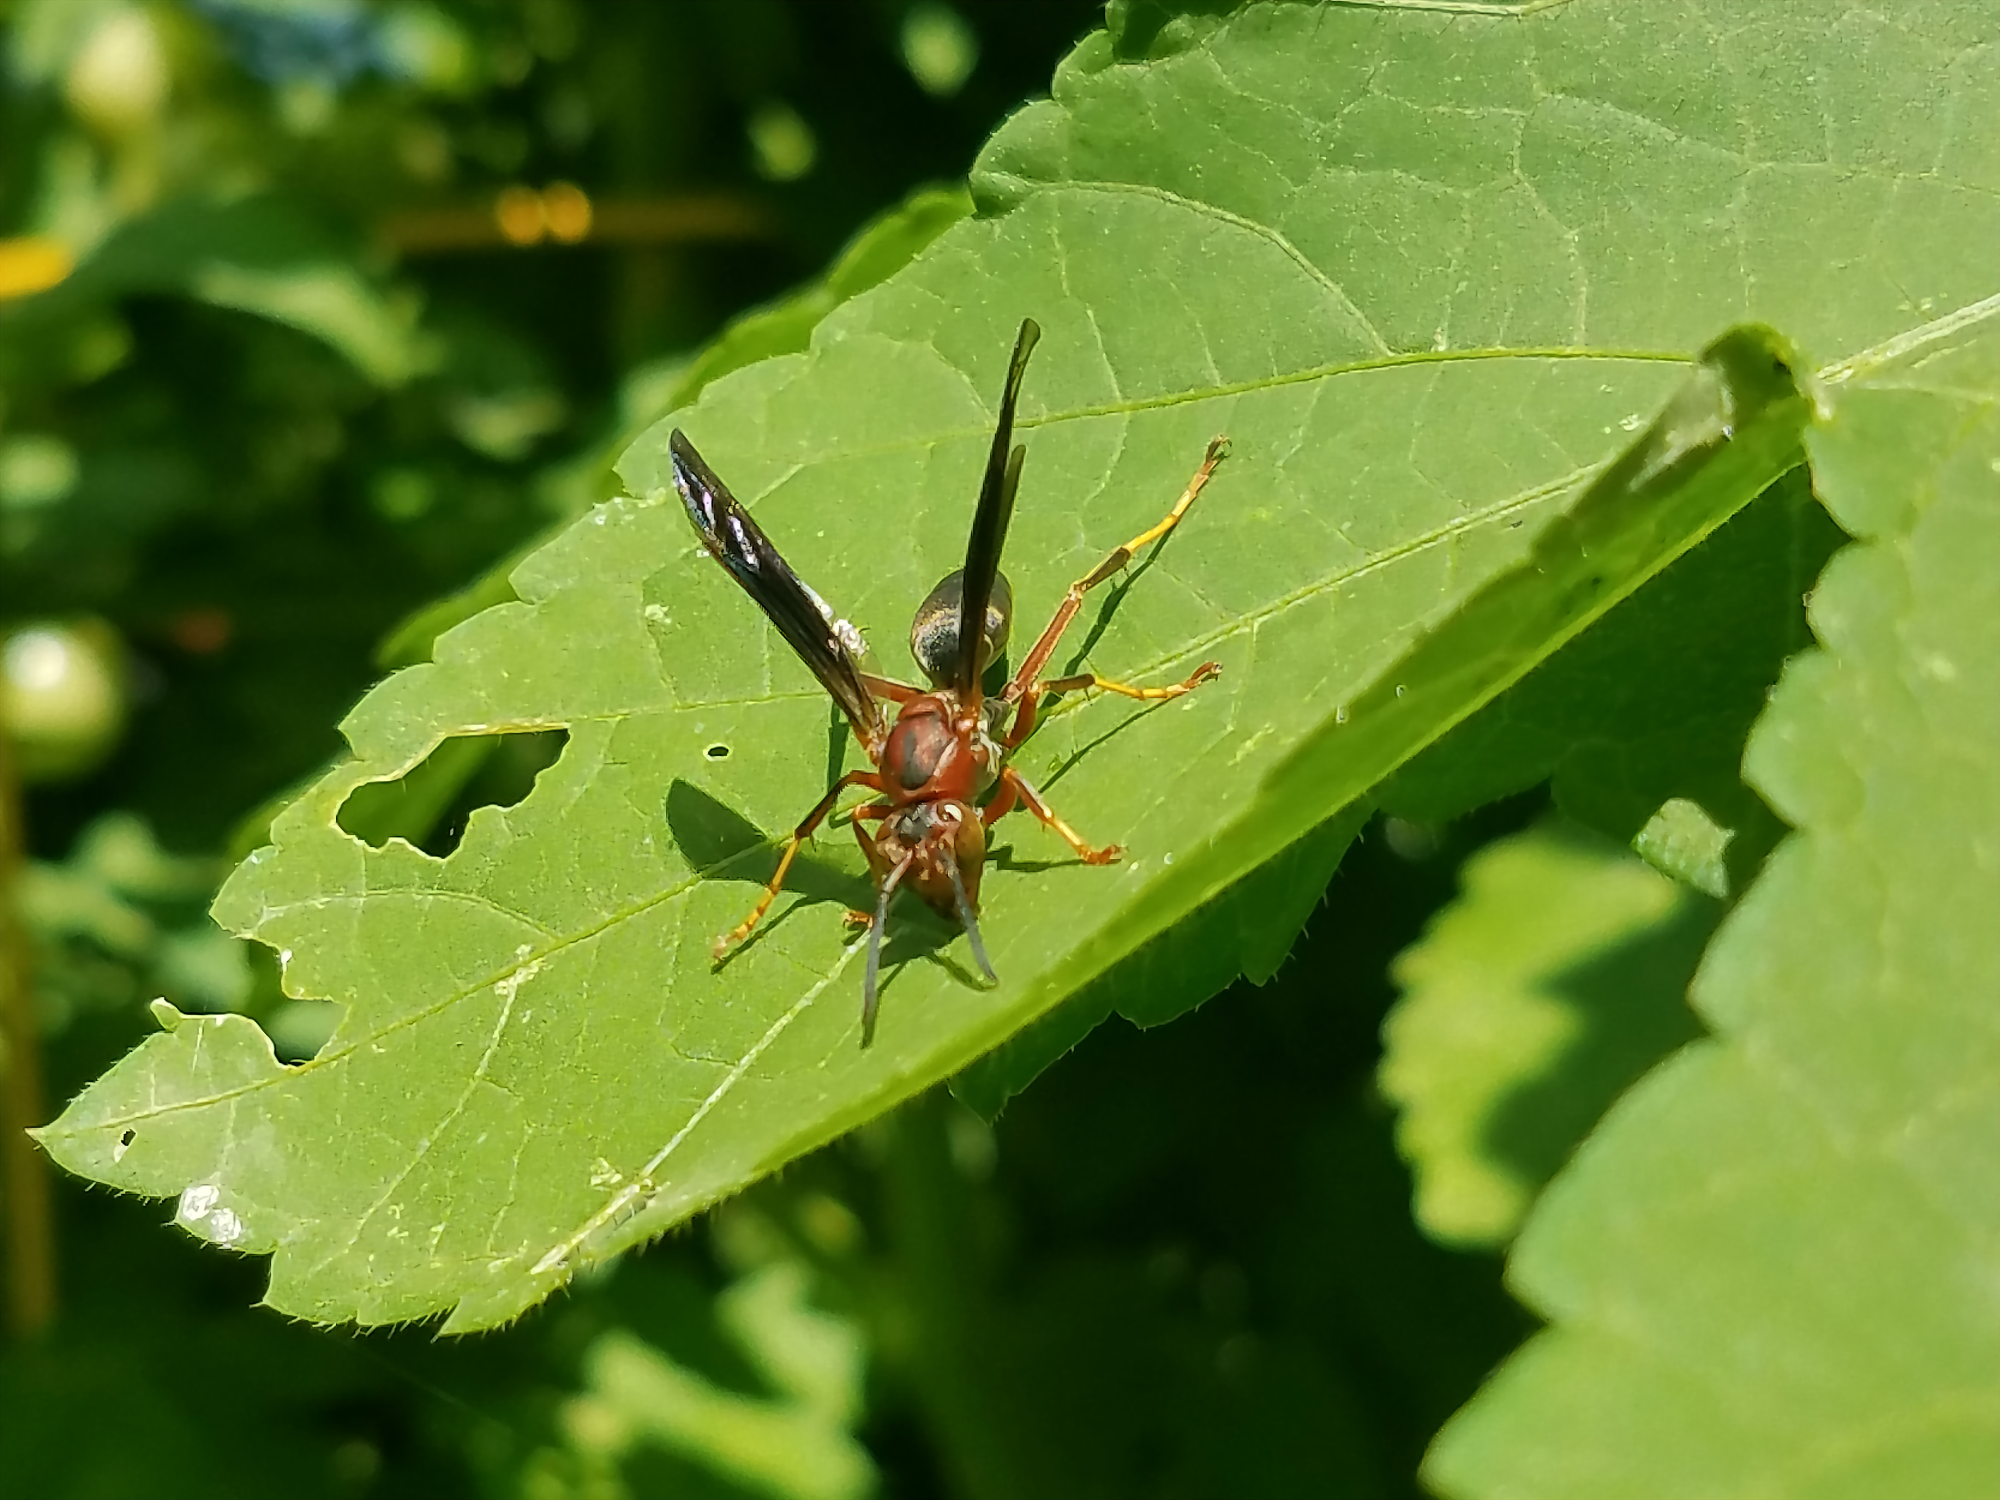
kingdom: Animalia
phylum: Arthropoda
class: Insecta
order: Hymenoptera
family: Eumenidae
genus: Polistes
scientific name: Polistes fuscatus
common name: Dark paper wasp
